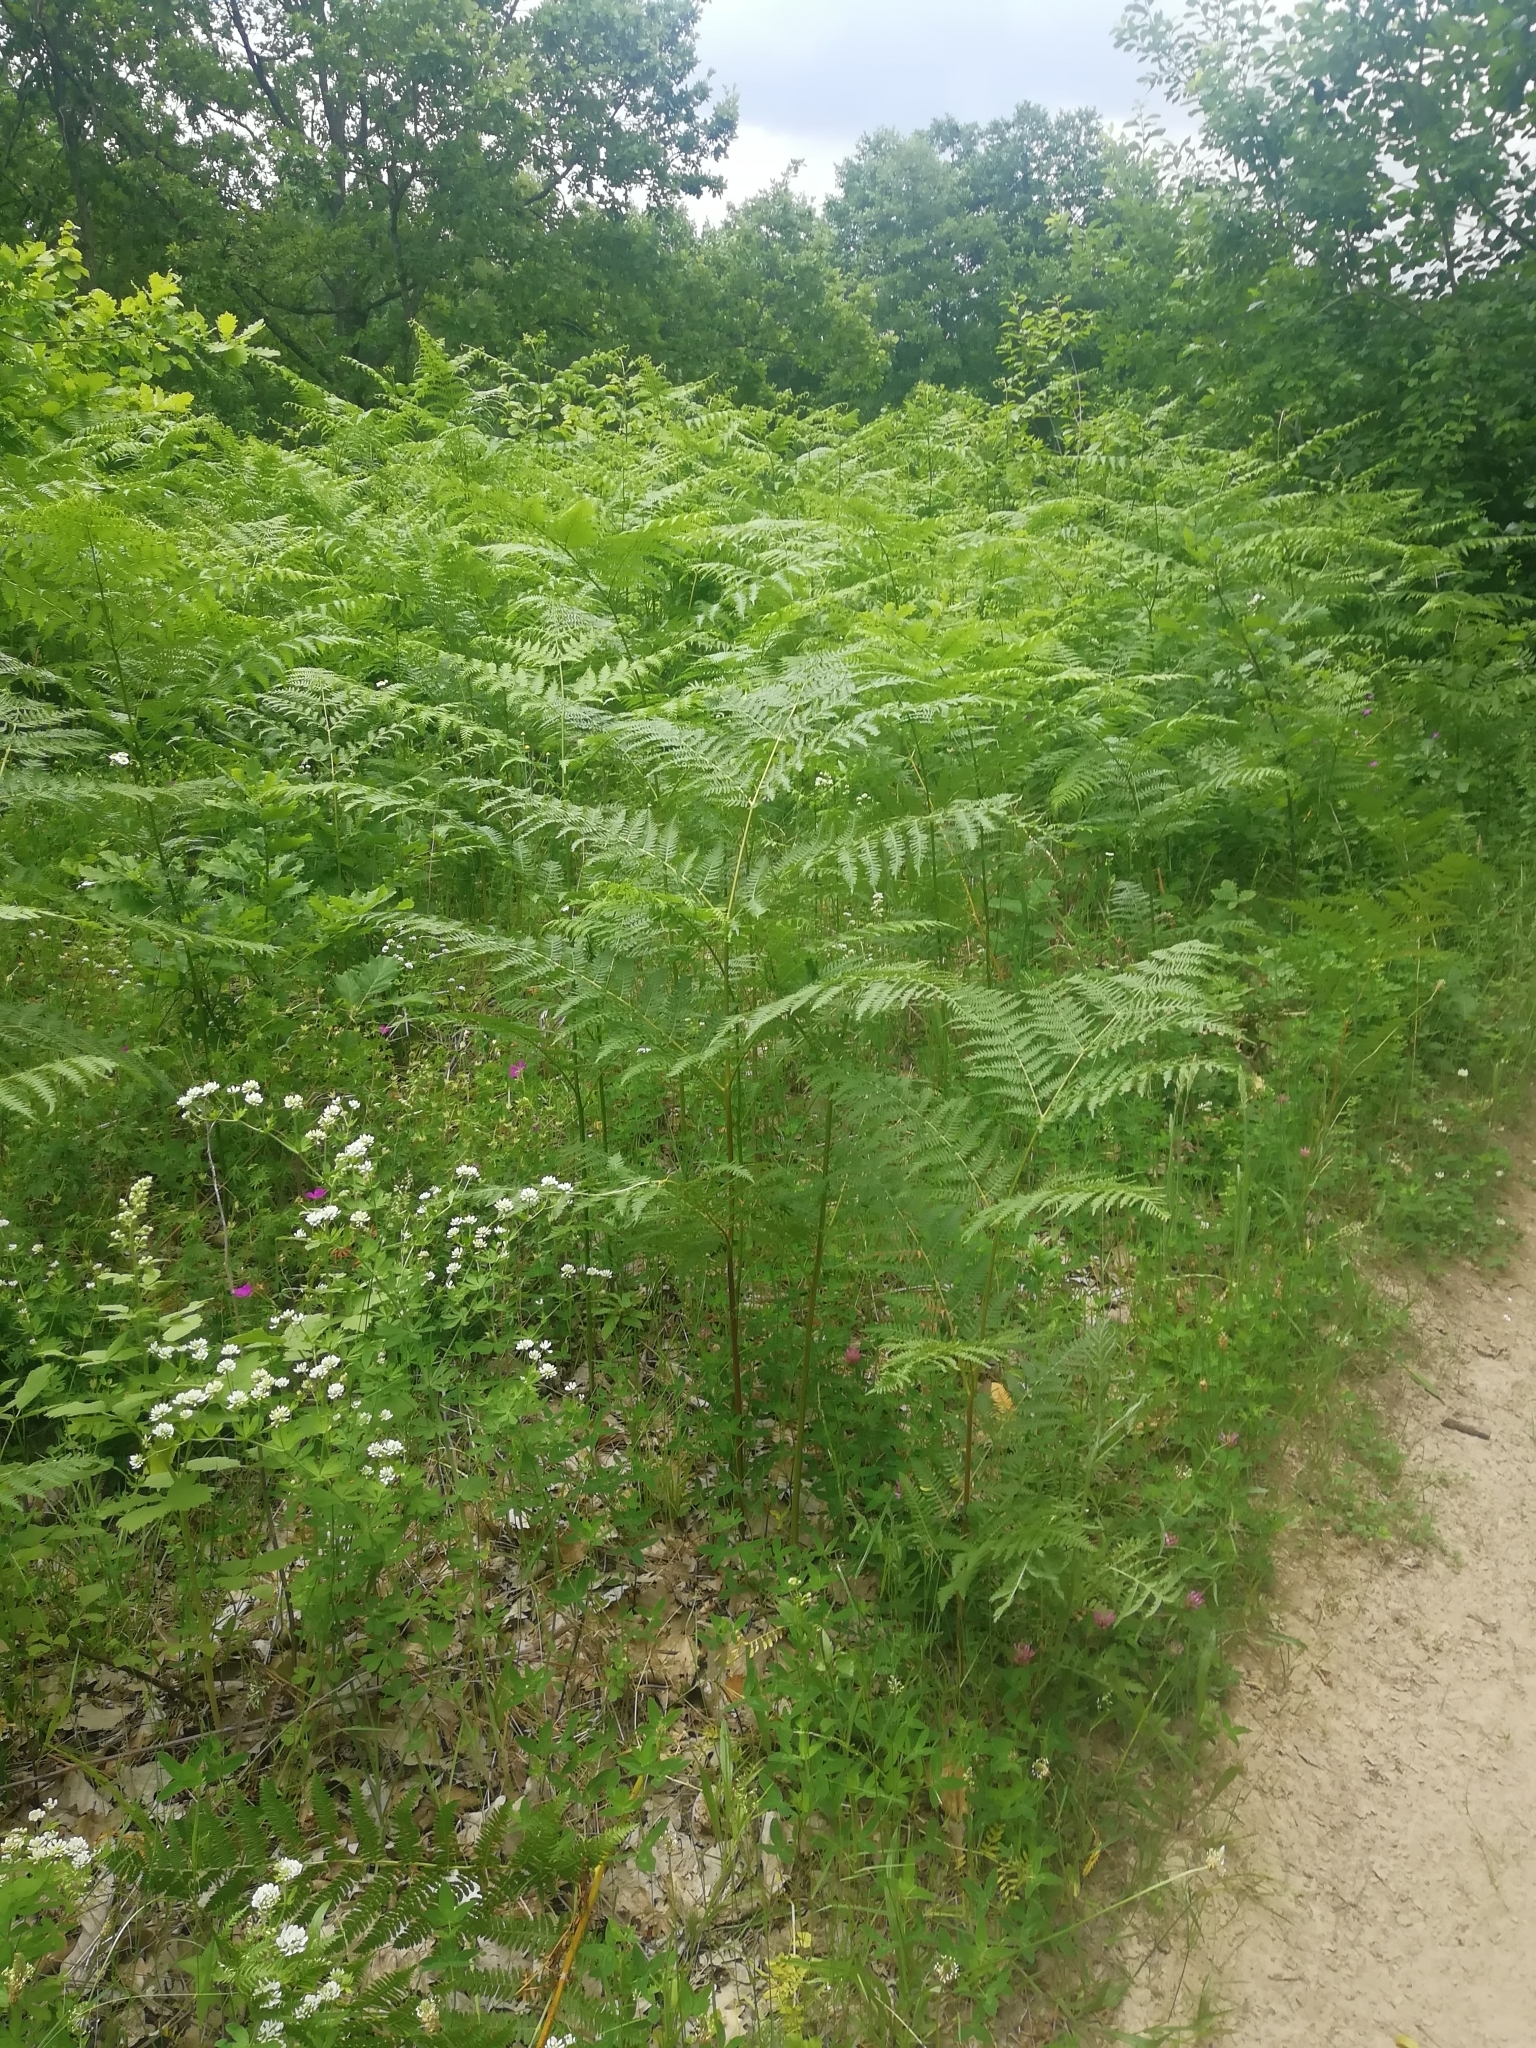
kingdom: Plantae
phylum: Tracheophyta
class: Polypodiopsida
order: Polypodiales
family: Dennstaedtiaceae
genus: Pteridium
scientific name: Pteridium tauricum
